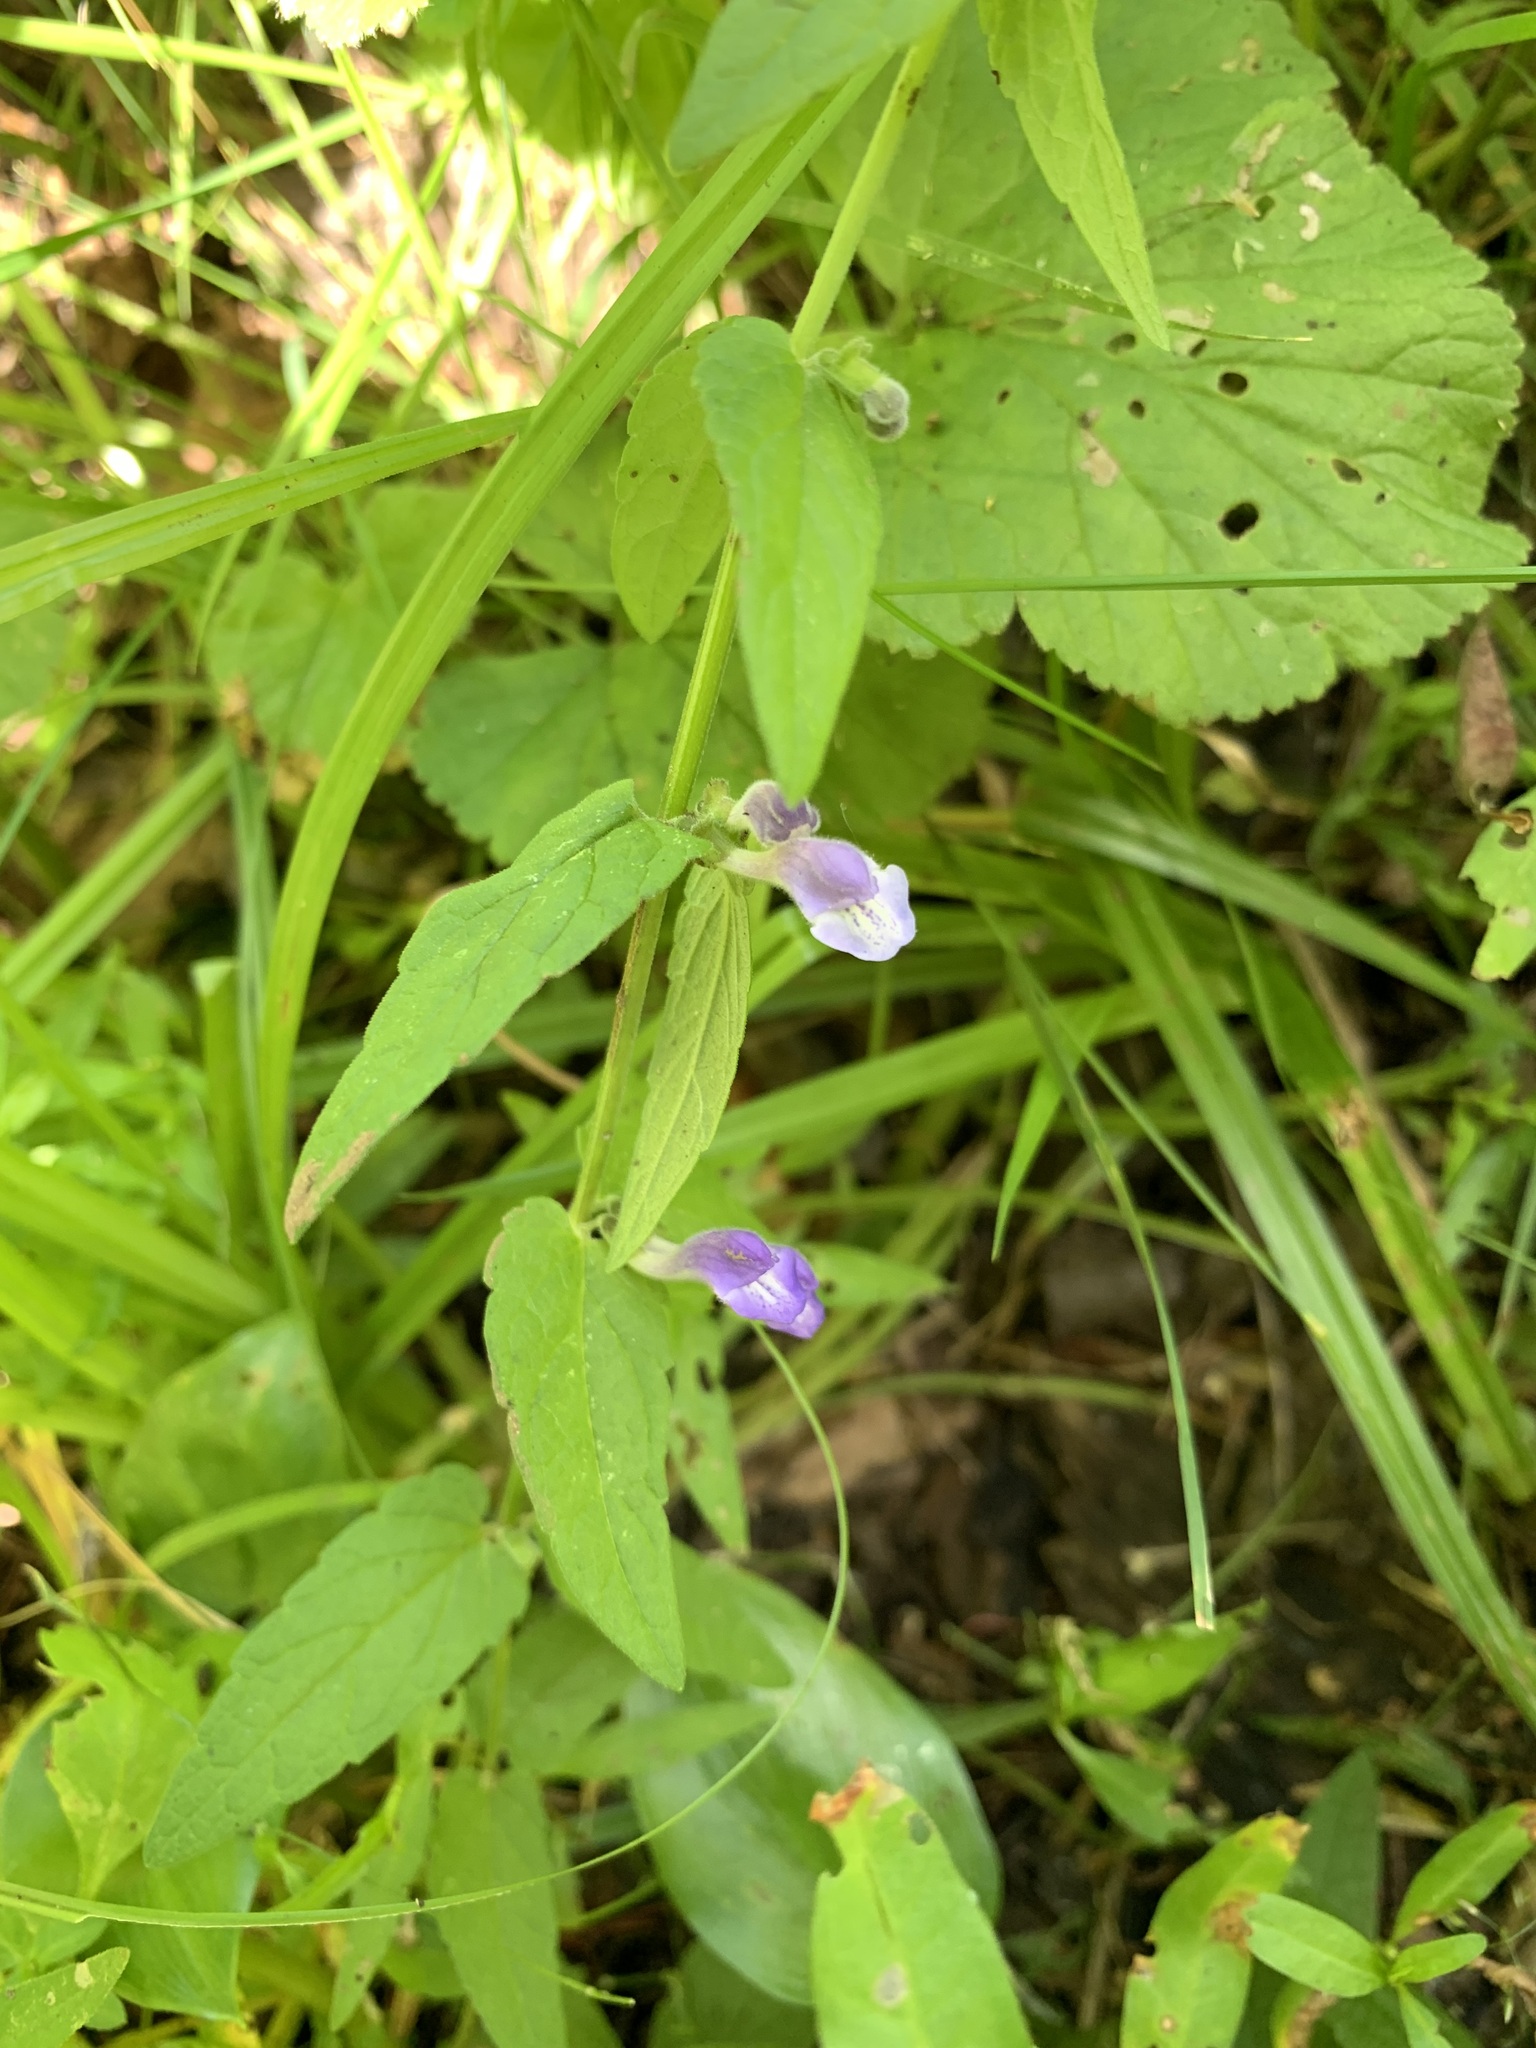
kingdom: Plantae
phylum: Tracheophyta
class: Magnoliopsida
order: Lamiales
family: Lamiaceae
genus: Scutellaria
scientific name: Scutellaria galericulata
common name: Skullcap
